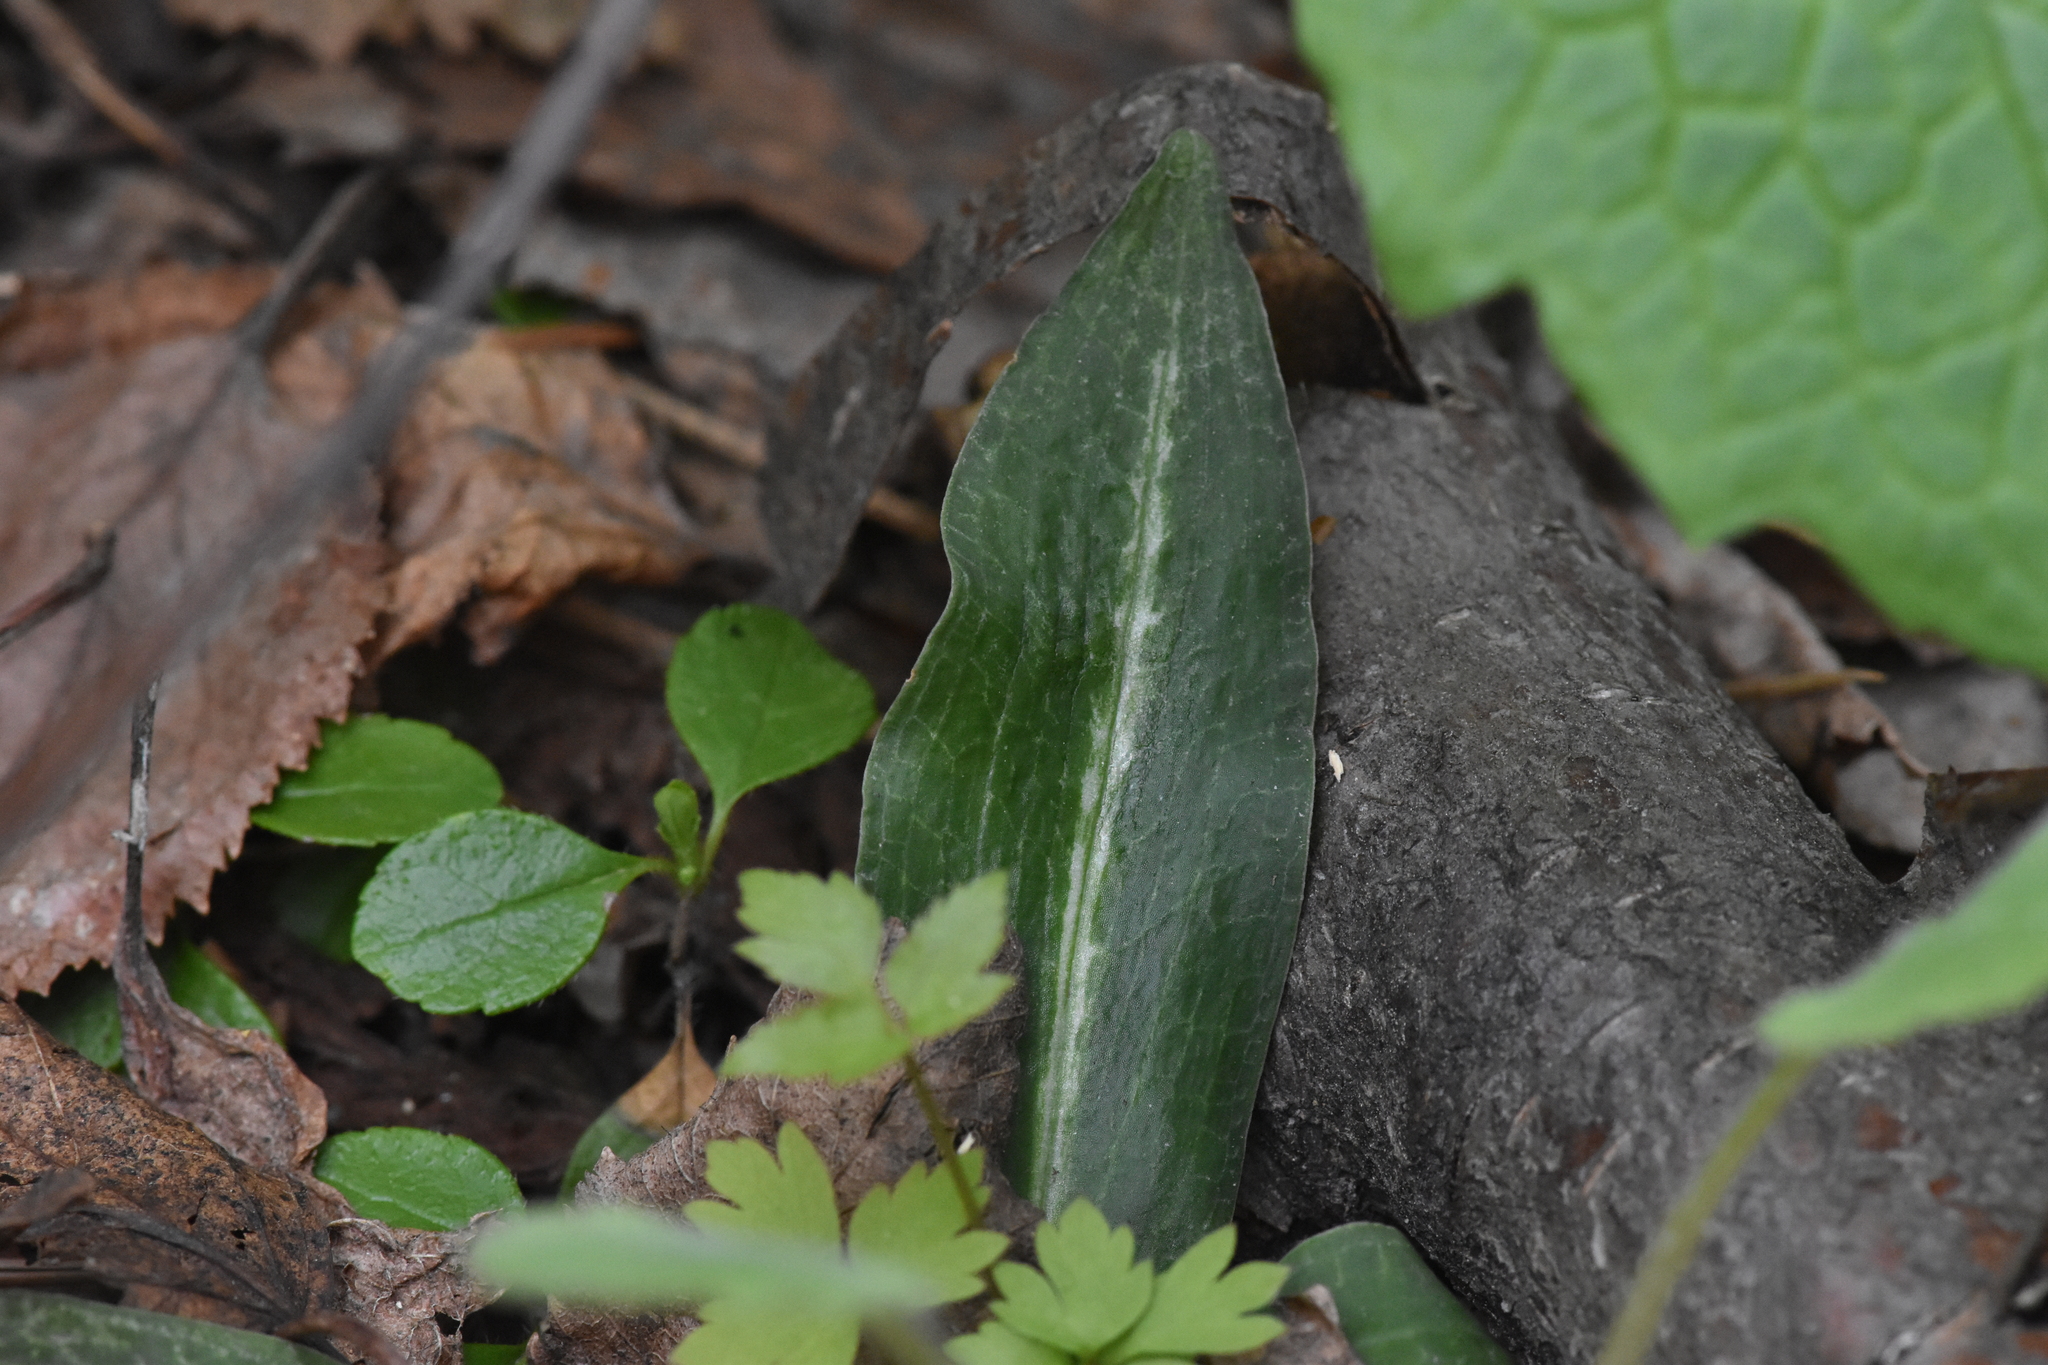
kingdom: Plantae
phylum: Tracheophyta
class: Liliopsida
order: Asparagales
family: Orchidaceae
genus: Goodyera
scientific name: Goodyera oblongifolia
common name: Giant rattlesnake-plantain
